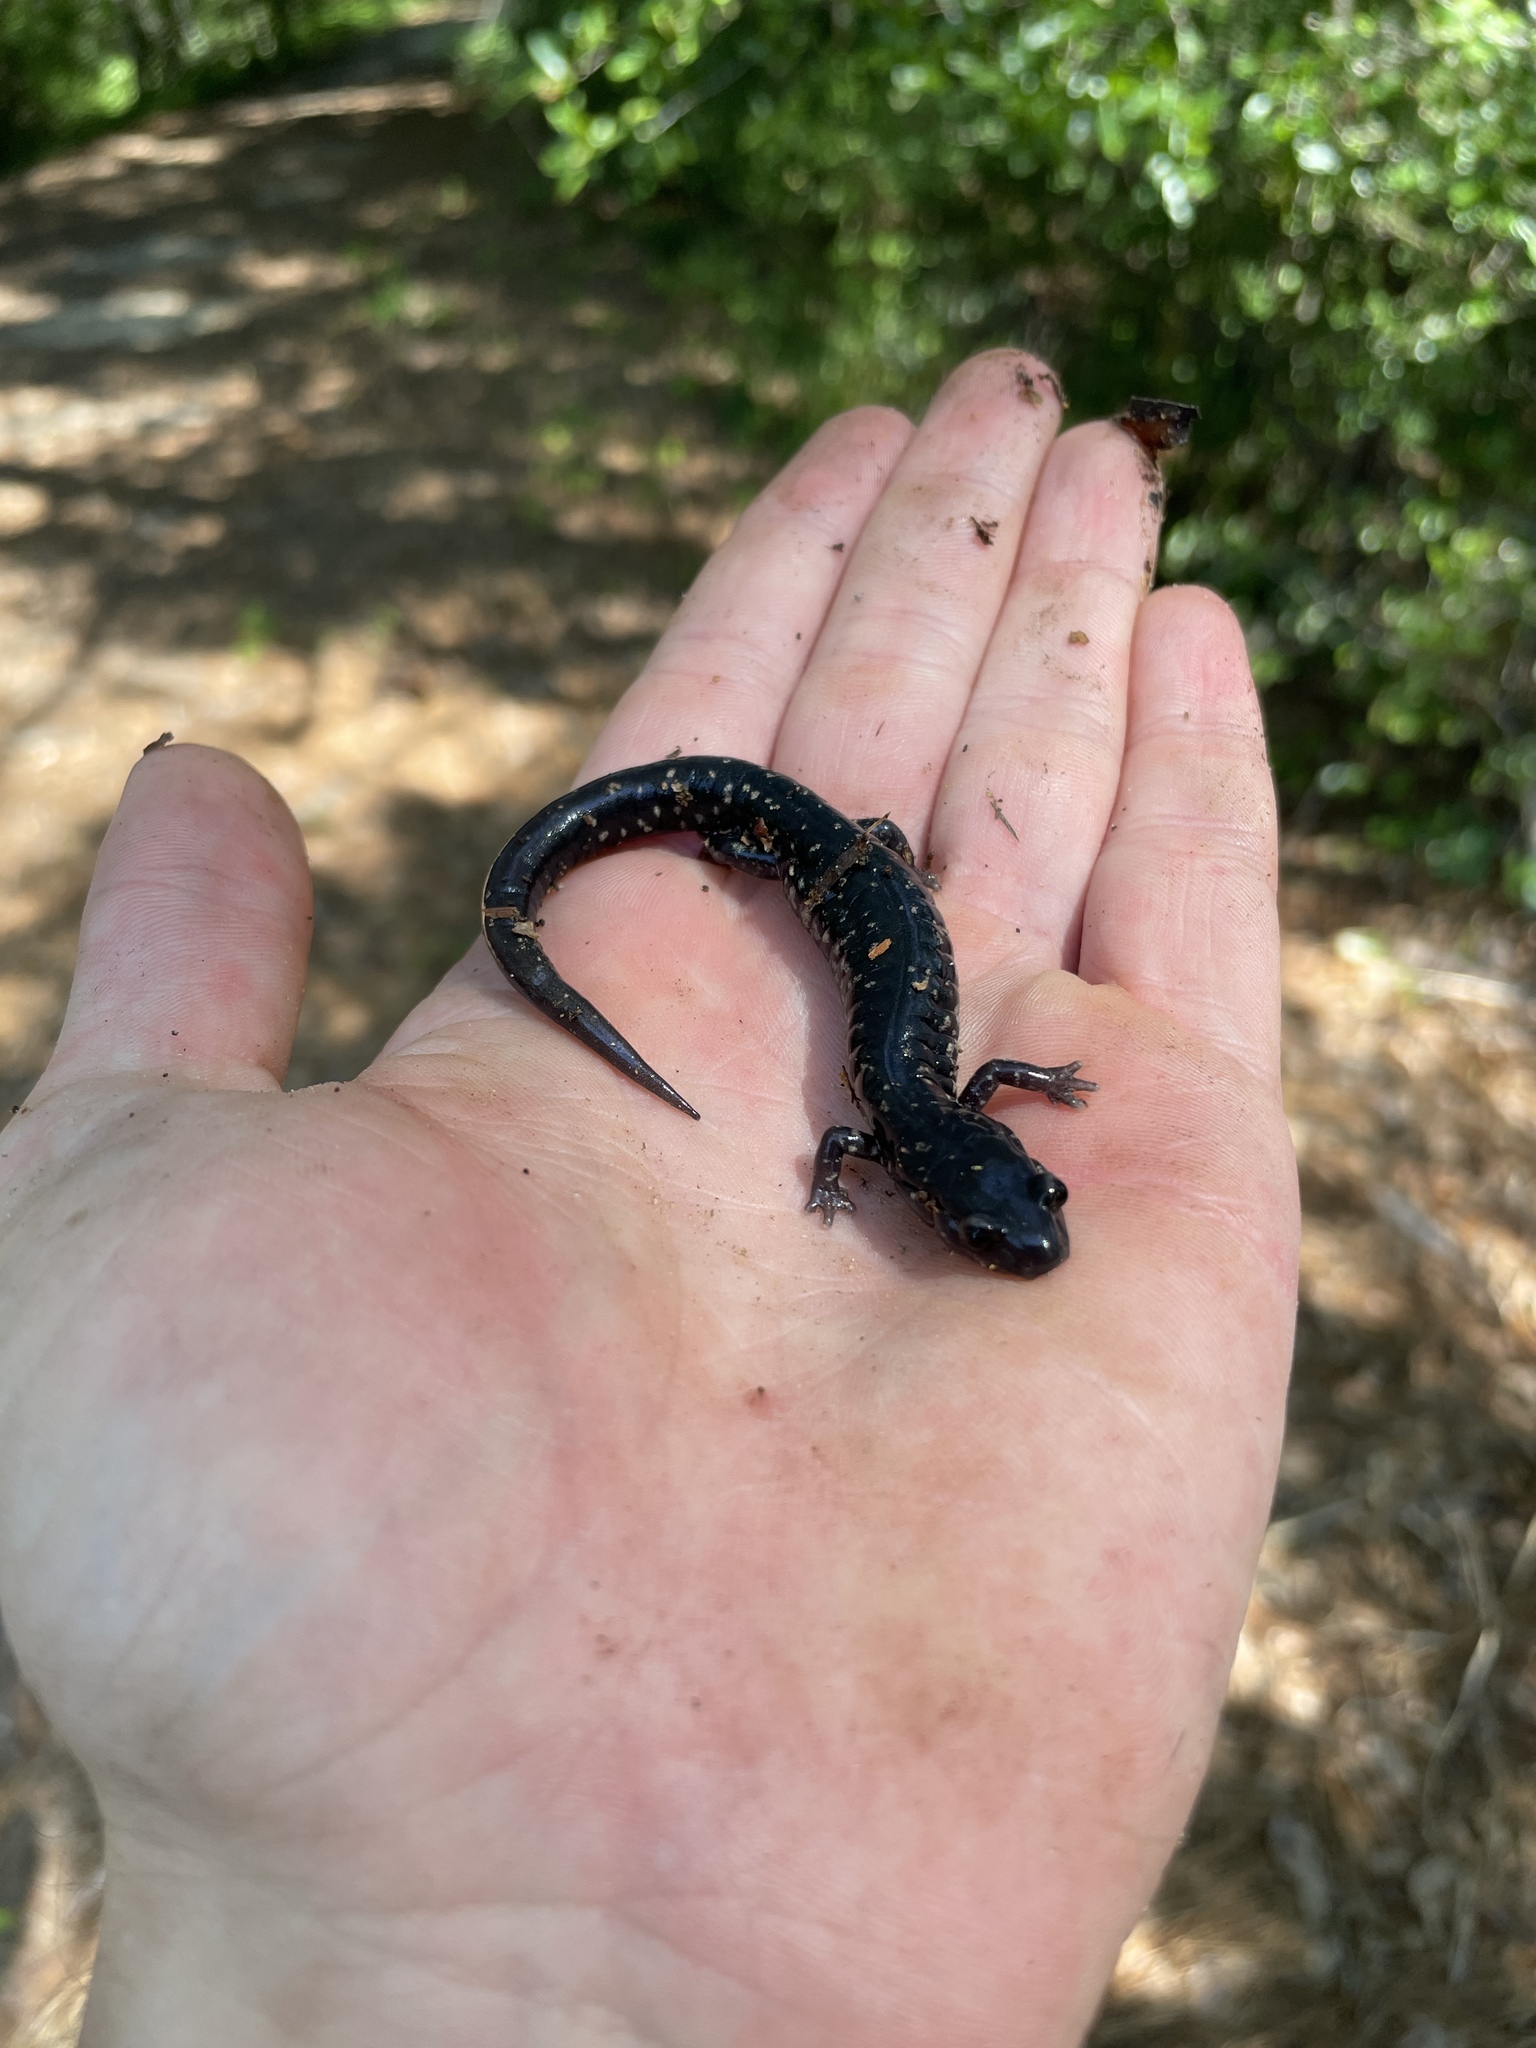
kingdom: Animalia
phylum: Chordata
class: Amphibia
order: Caudata
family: Plethodontidae
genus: Plethodon
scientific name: Plethodon mississippi
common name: Mississippi slimy salamander
